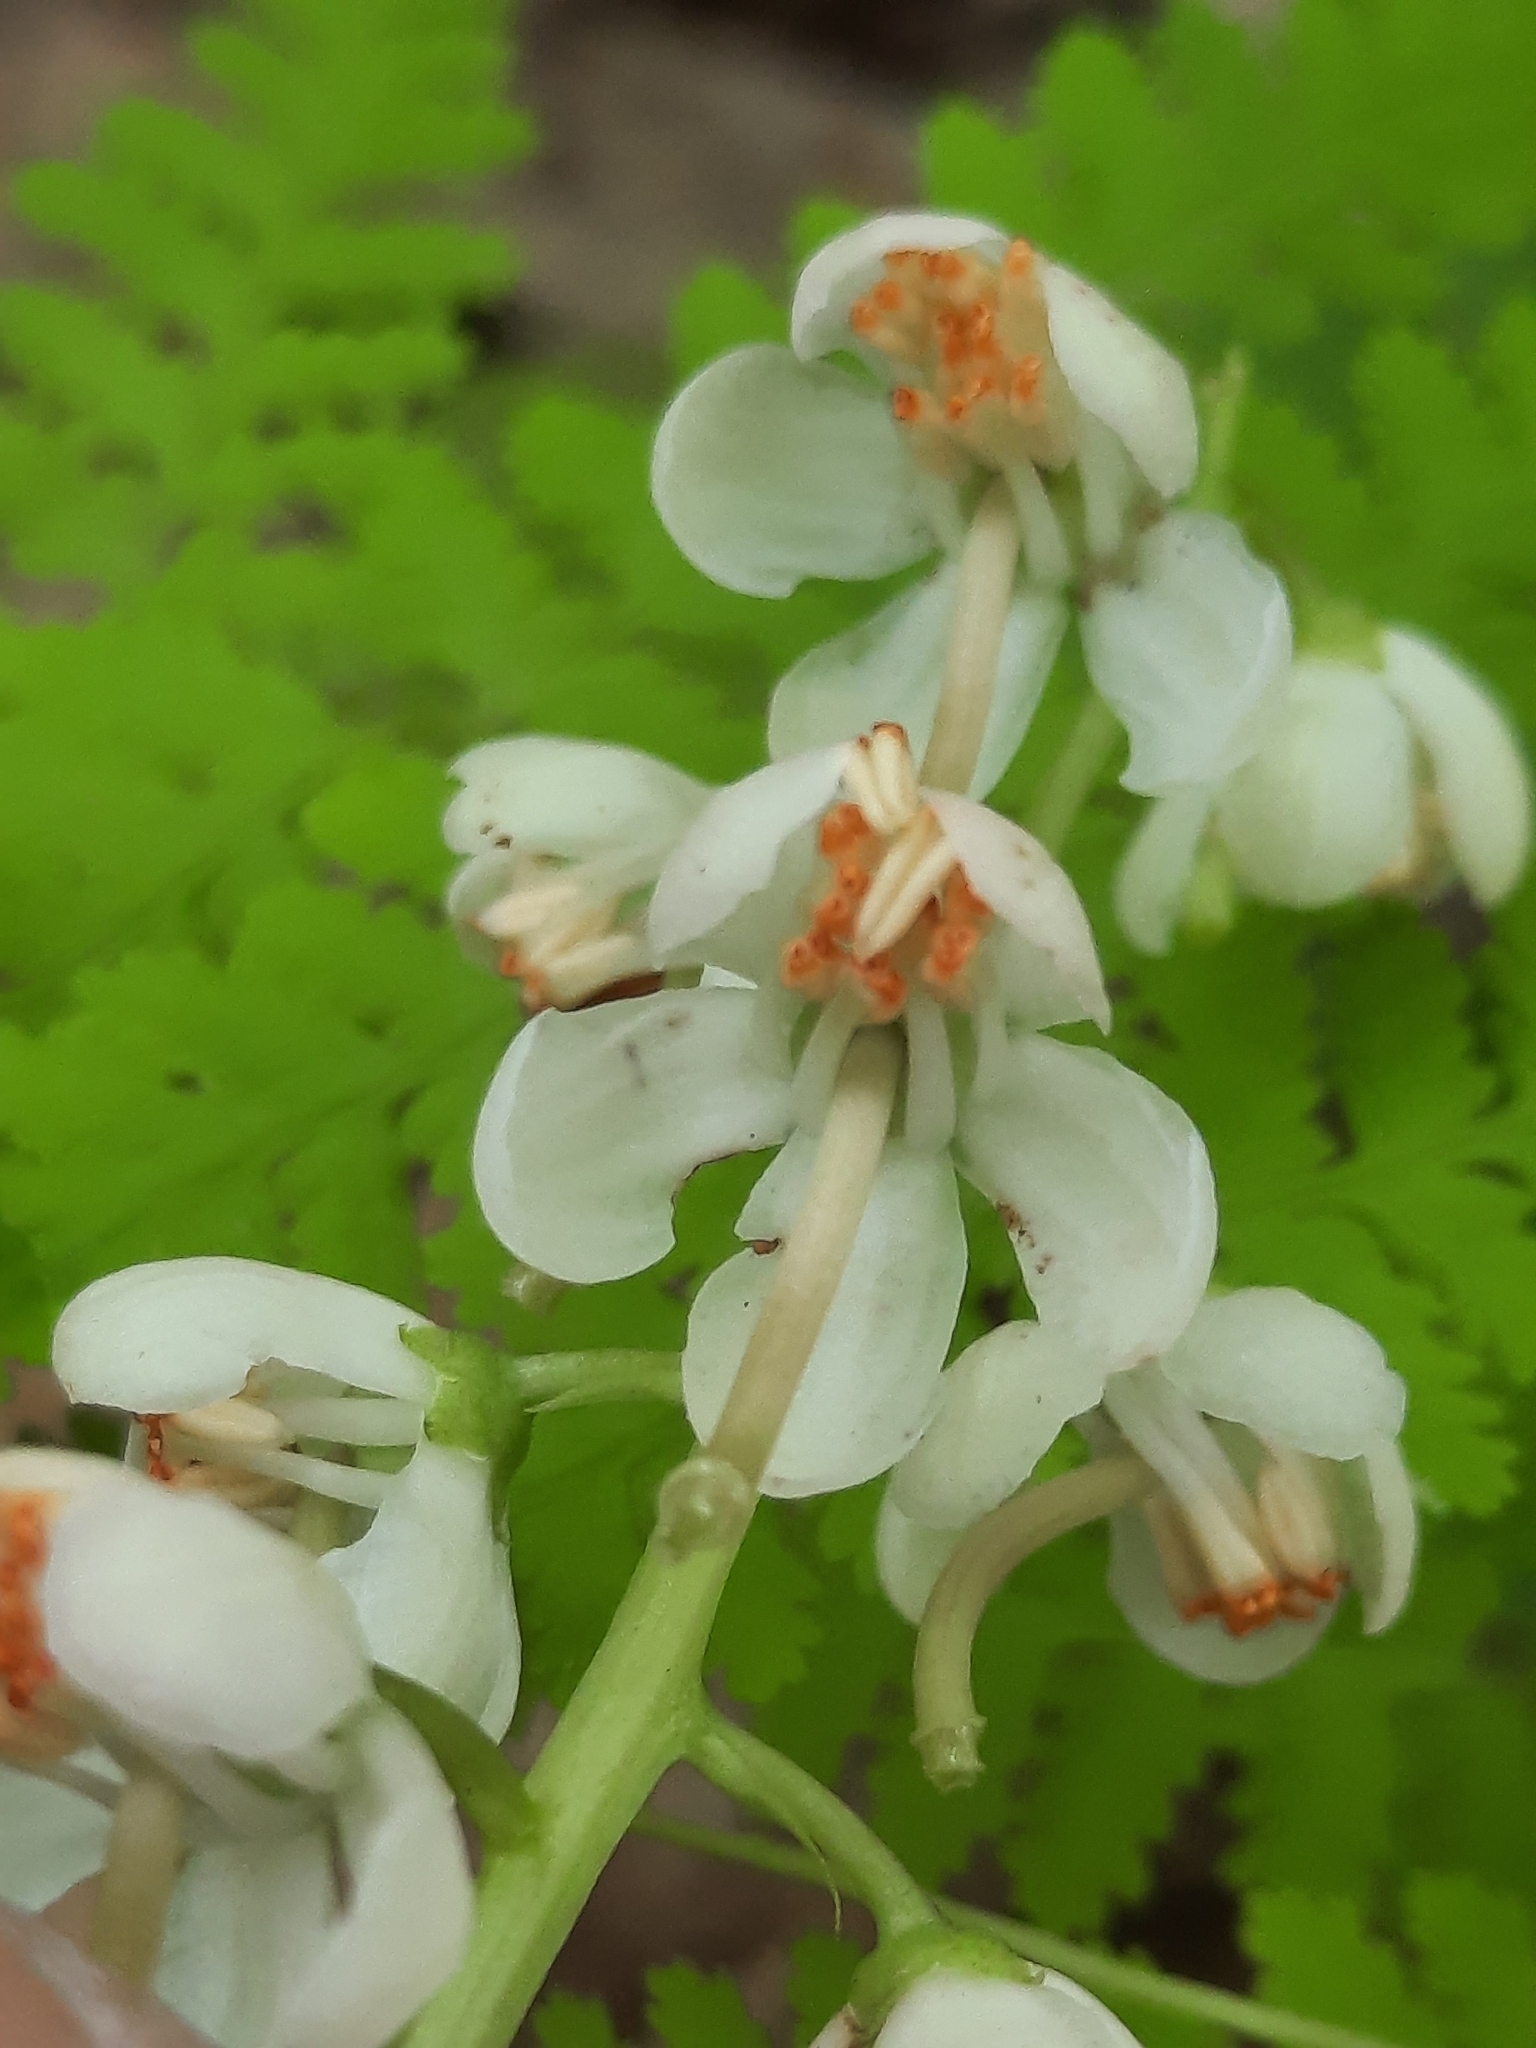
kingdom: Plantae
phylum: Tracheophyta
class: Magnoliopsida
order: Ericales
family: Ericaceae
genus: Pyrola
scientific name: Pyrola elliptica
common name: Shinleaf
